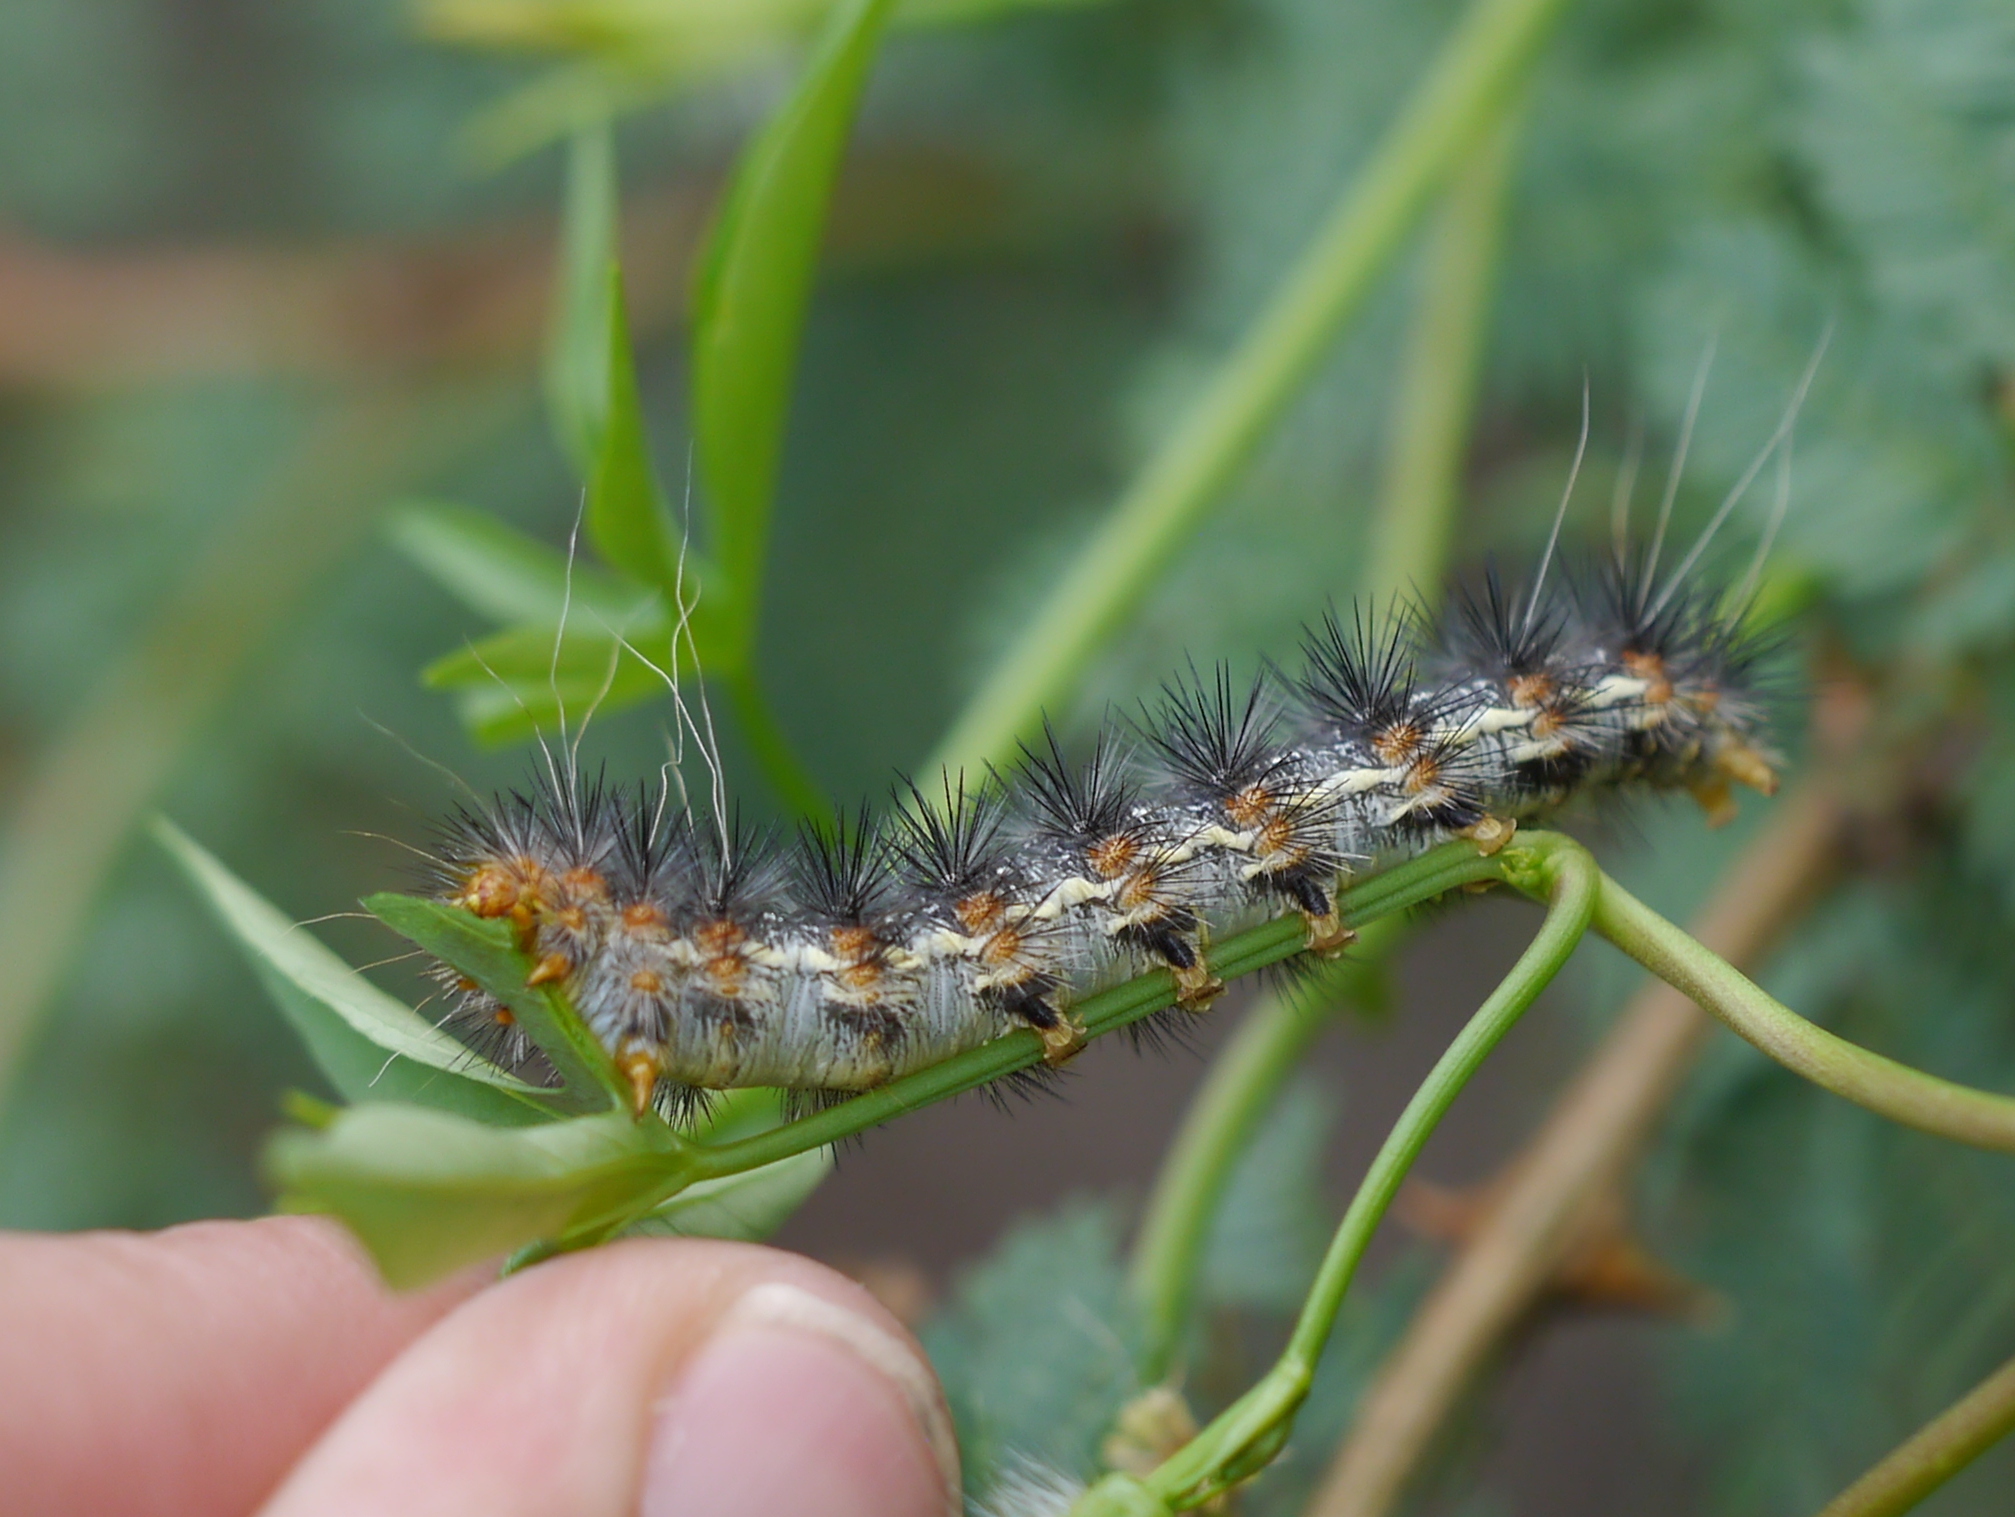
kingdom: Animalia
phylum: Arthropoda
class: Insecta
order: Lepidoptera
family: Erebidae
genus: Hypercompe
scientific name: Hypercompe suffusa
